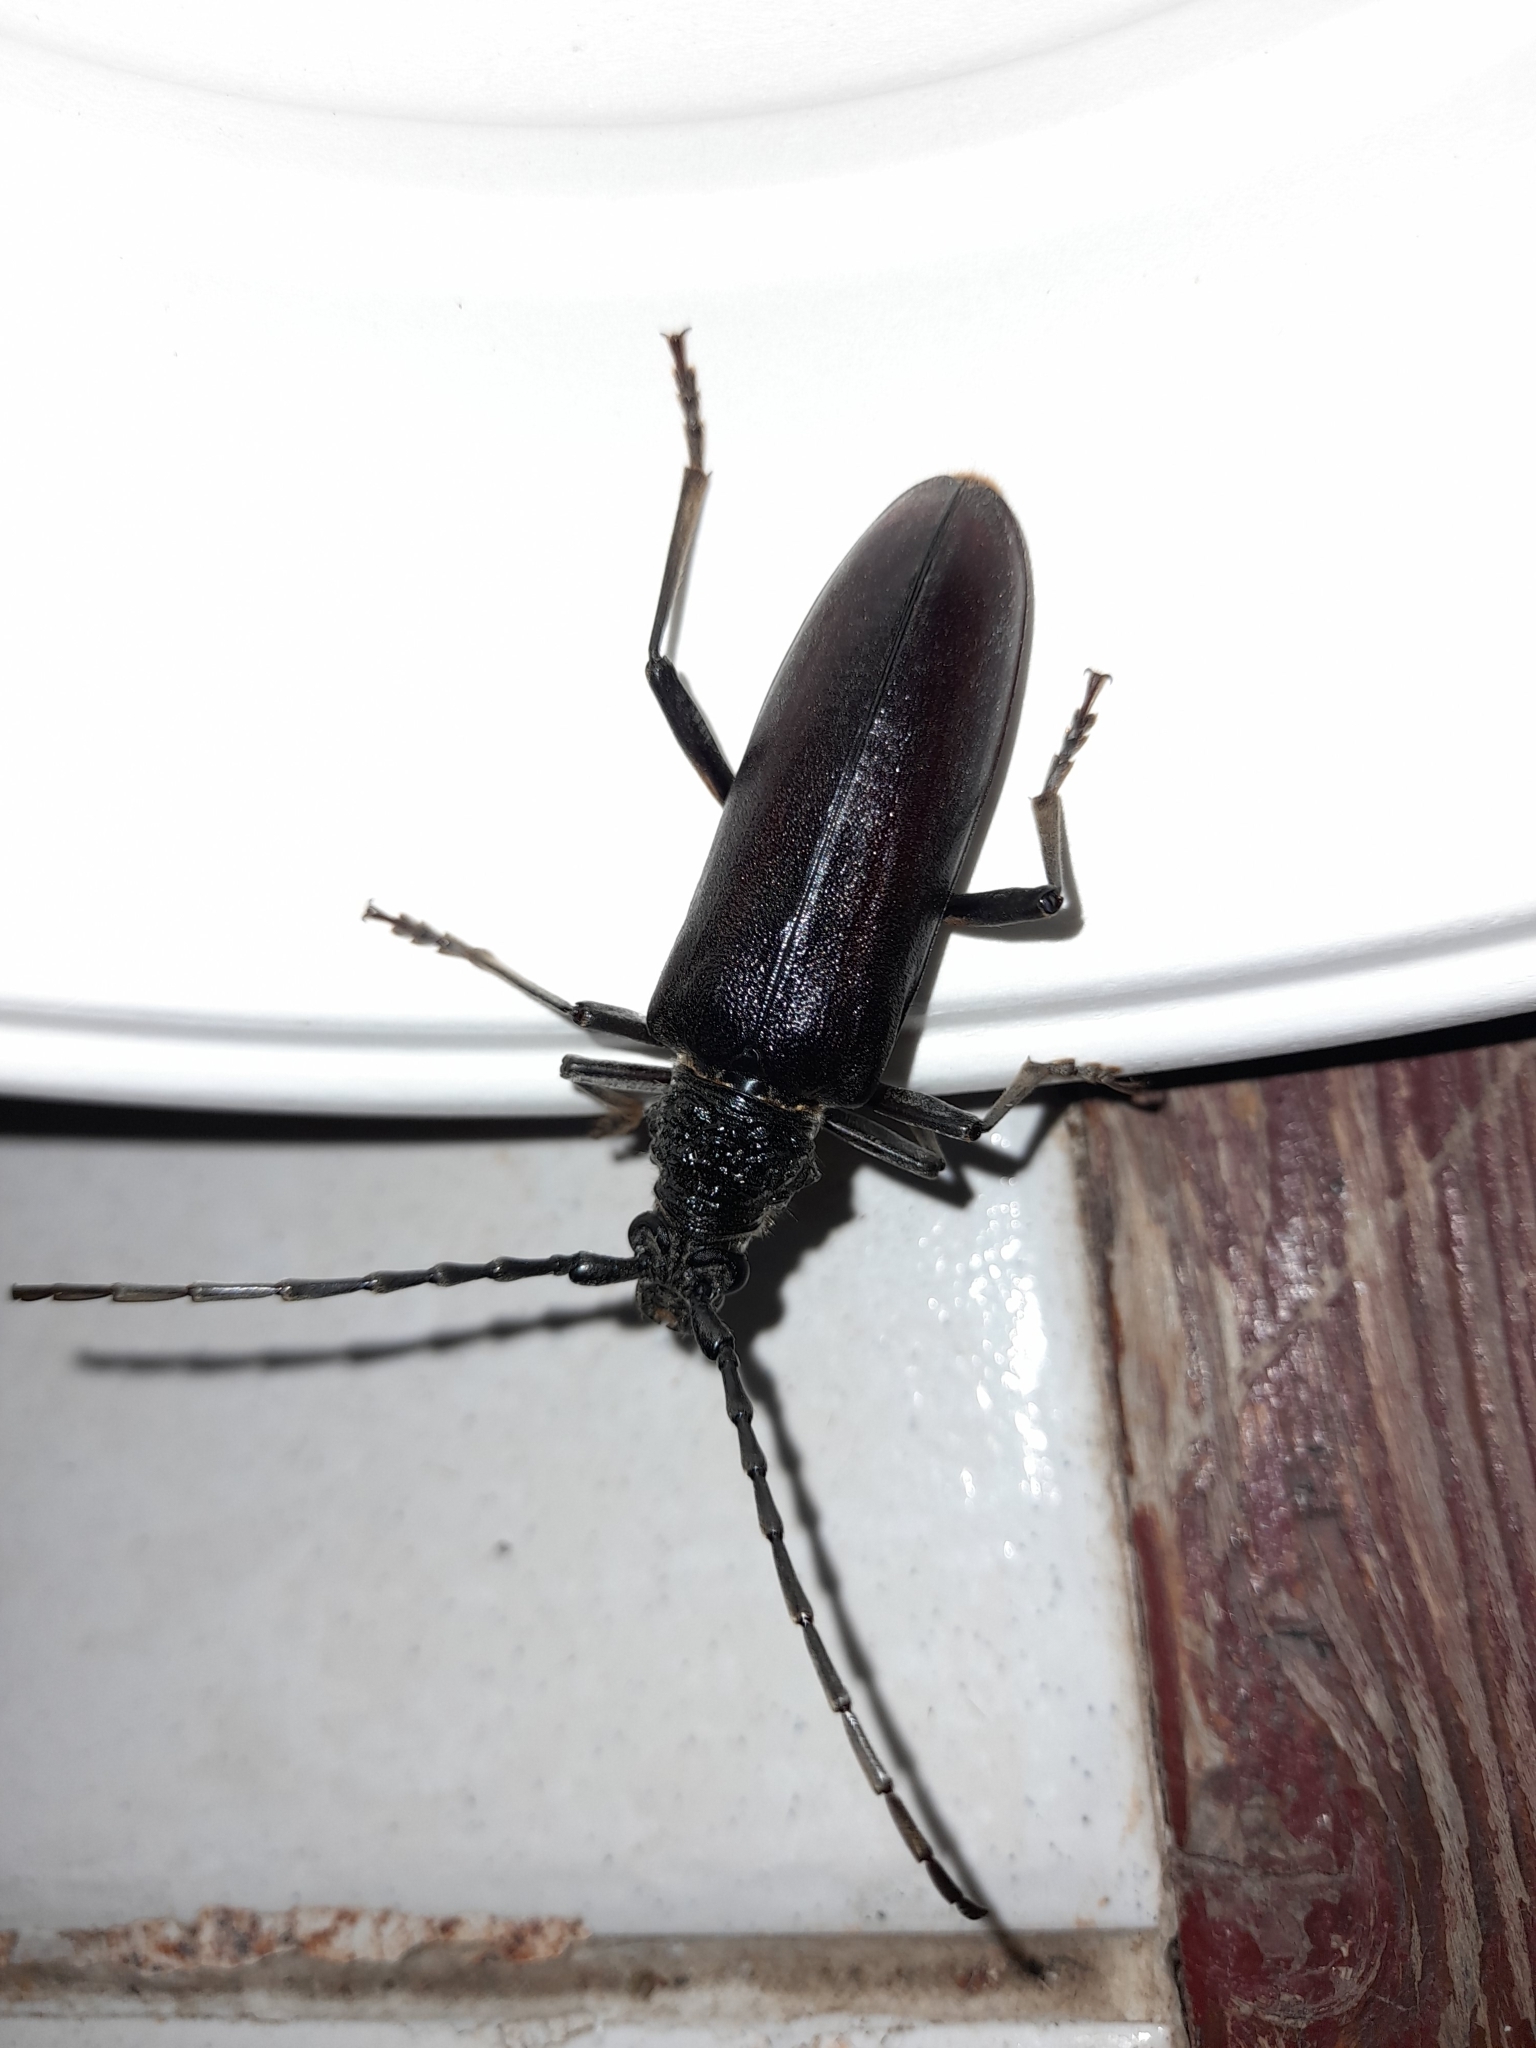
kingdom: Animalia
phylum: Arthropoda
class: Insecta
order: Coleoptera
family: Cerambycidae
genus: Cerambyx
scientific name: Cerambyx welensii
